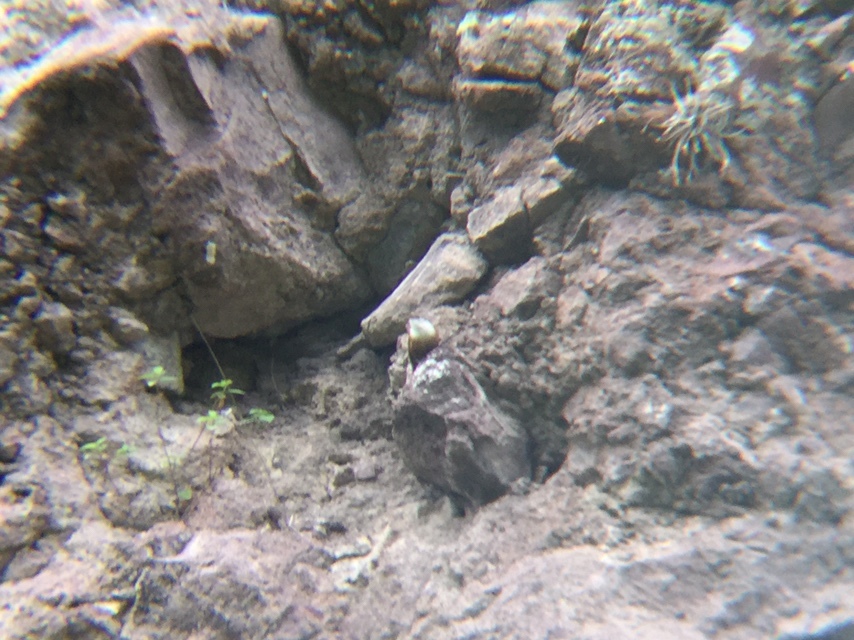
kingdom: Animalia
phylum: Chordata
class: Aves
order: Passeriformes
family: Troglodytidae
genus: Catherpes
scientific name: Catherpes mexicanus
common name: Canyon wren
